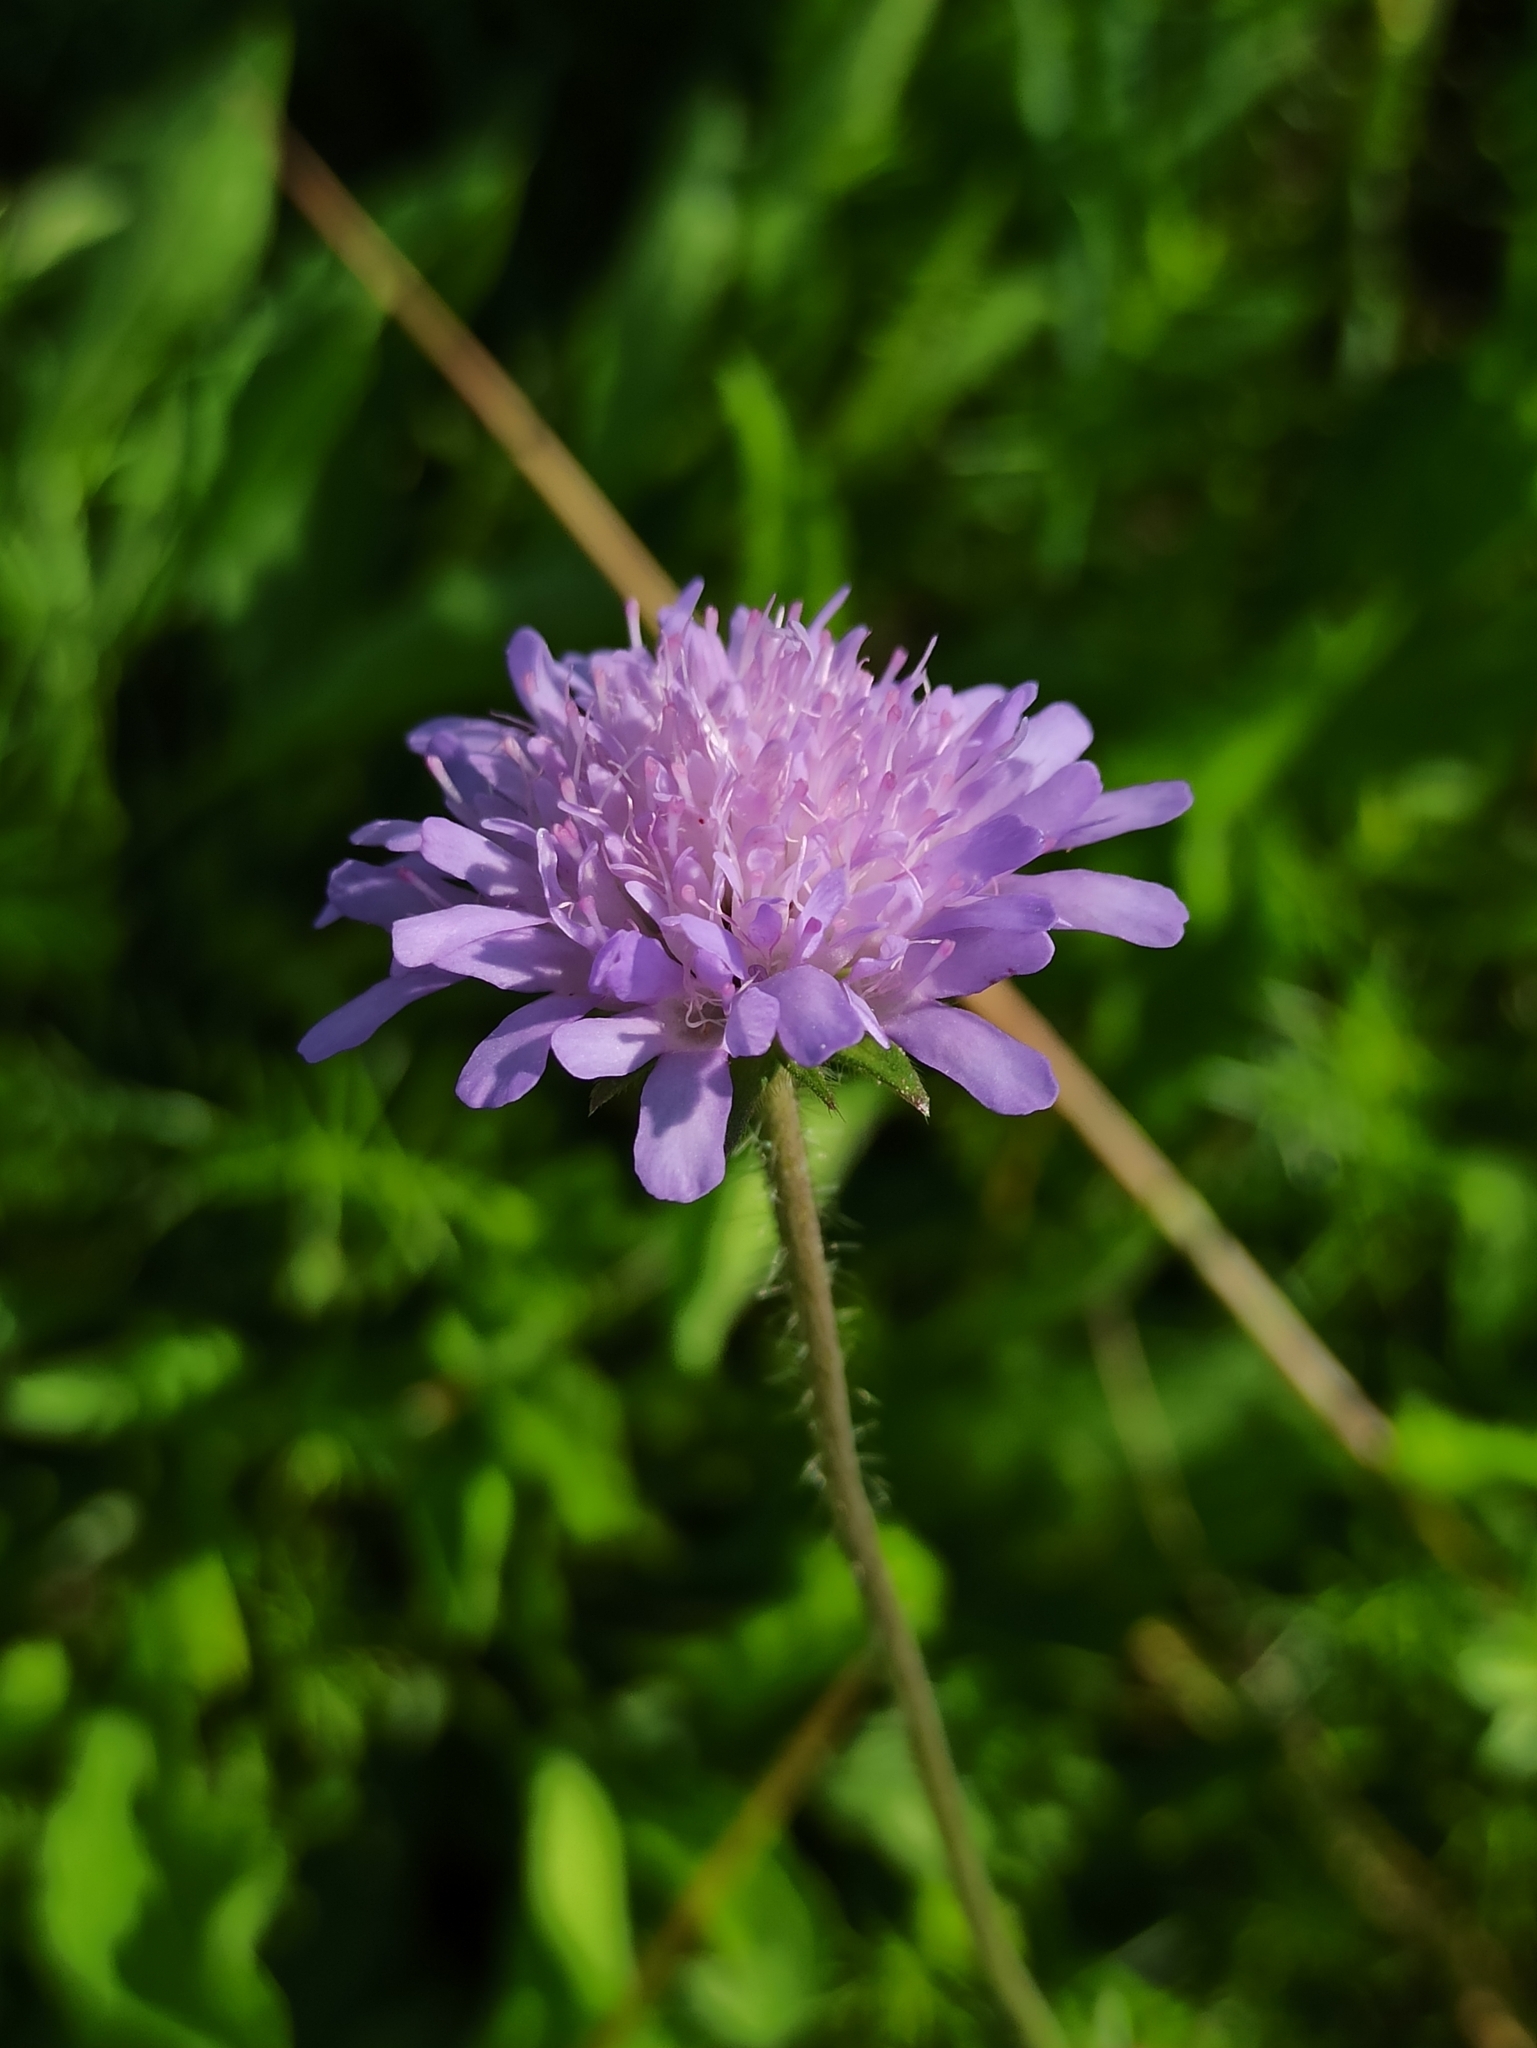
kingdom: Plantae
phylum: Tracheophyta
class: Magnoliopsida
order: Dipsacales
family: Caprifoliaceae
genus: Knautia
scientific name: Knautia arvensis
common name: Field scabiosa
